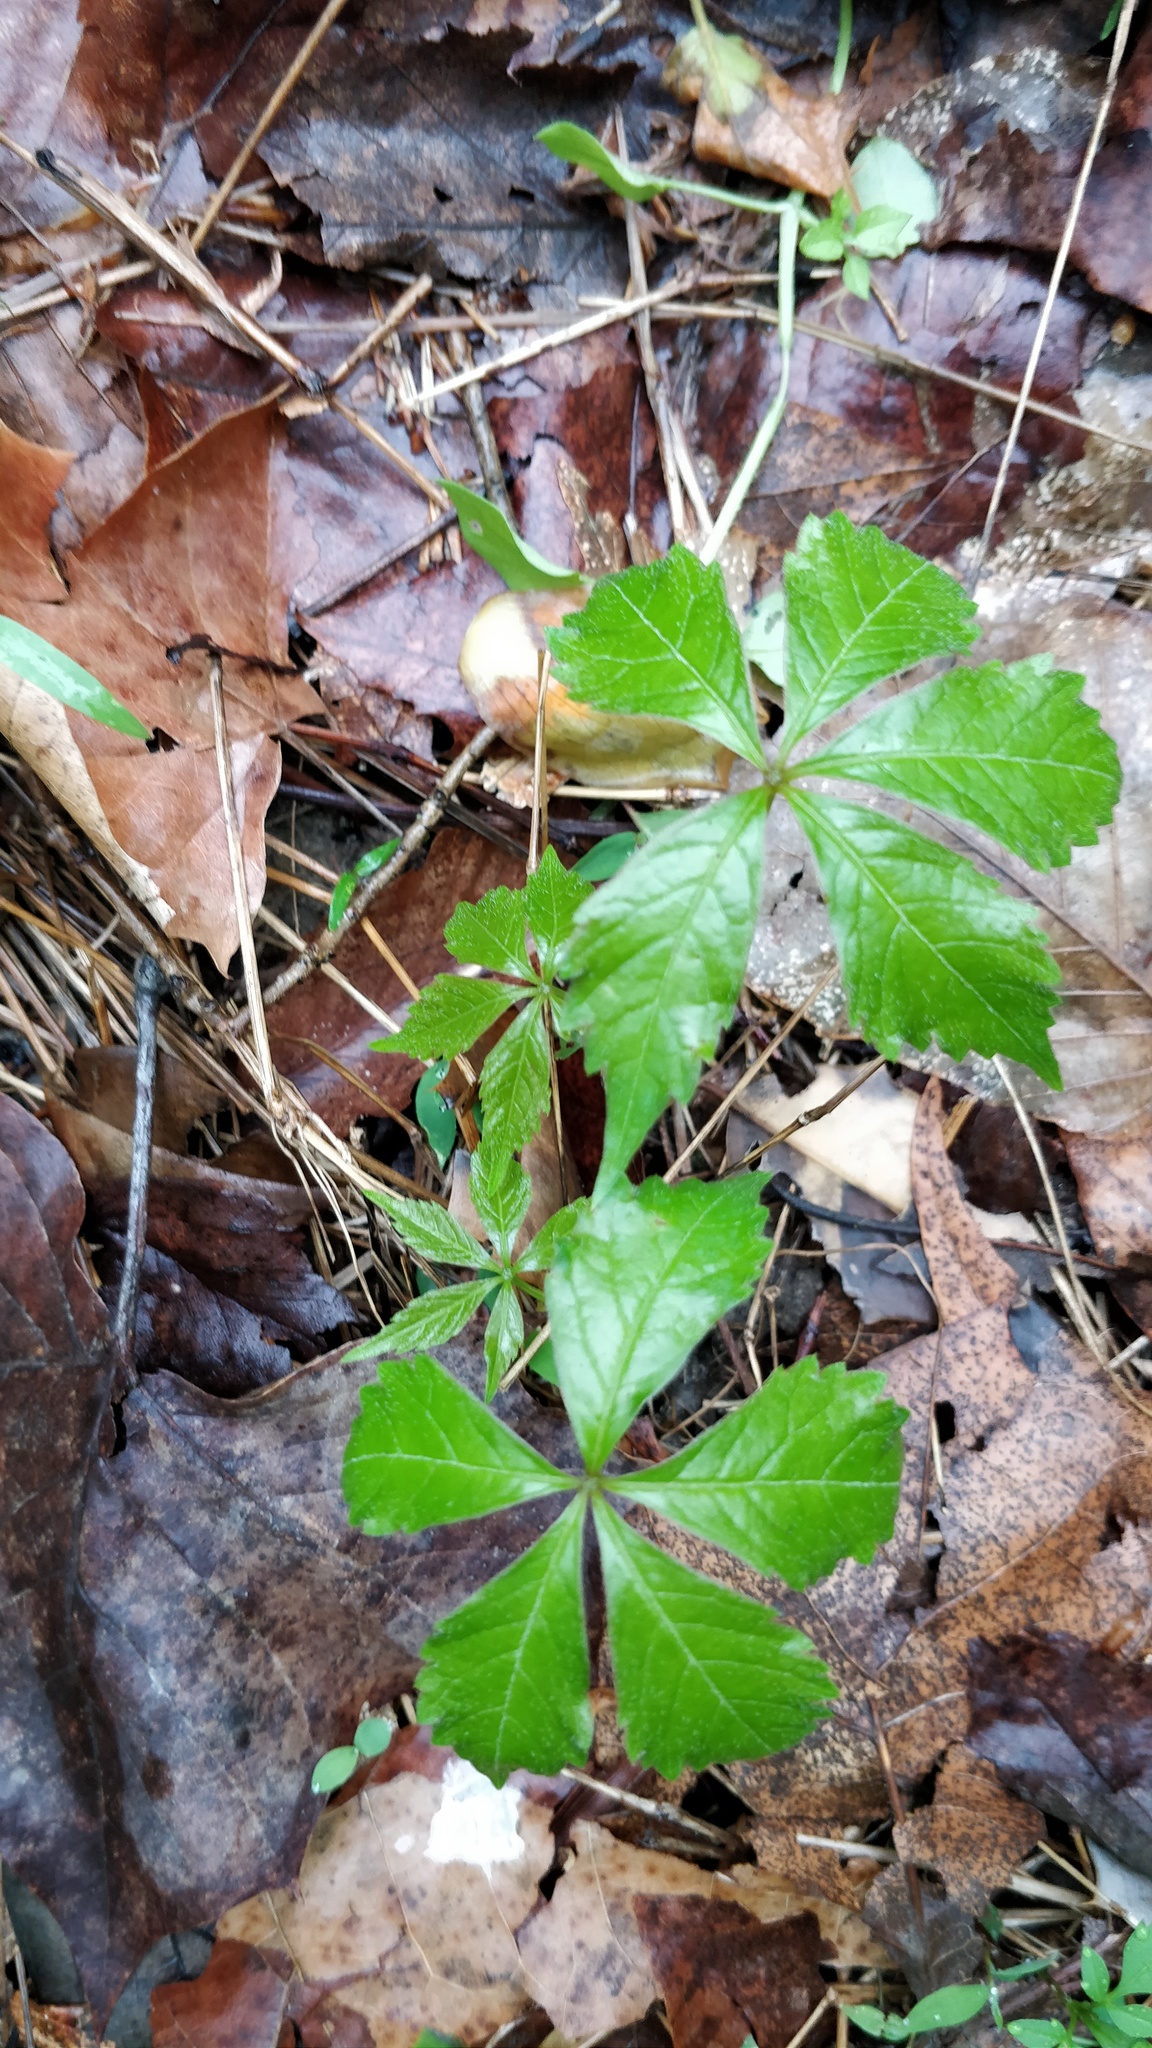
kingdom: Plantae
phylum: Tracheophyta
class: Magnoliopsida
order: Vitales
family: Vitaceae
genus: Parthenocissus
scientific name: Parthenocissus quinquefolia
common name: Virginia-creeper
